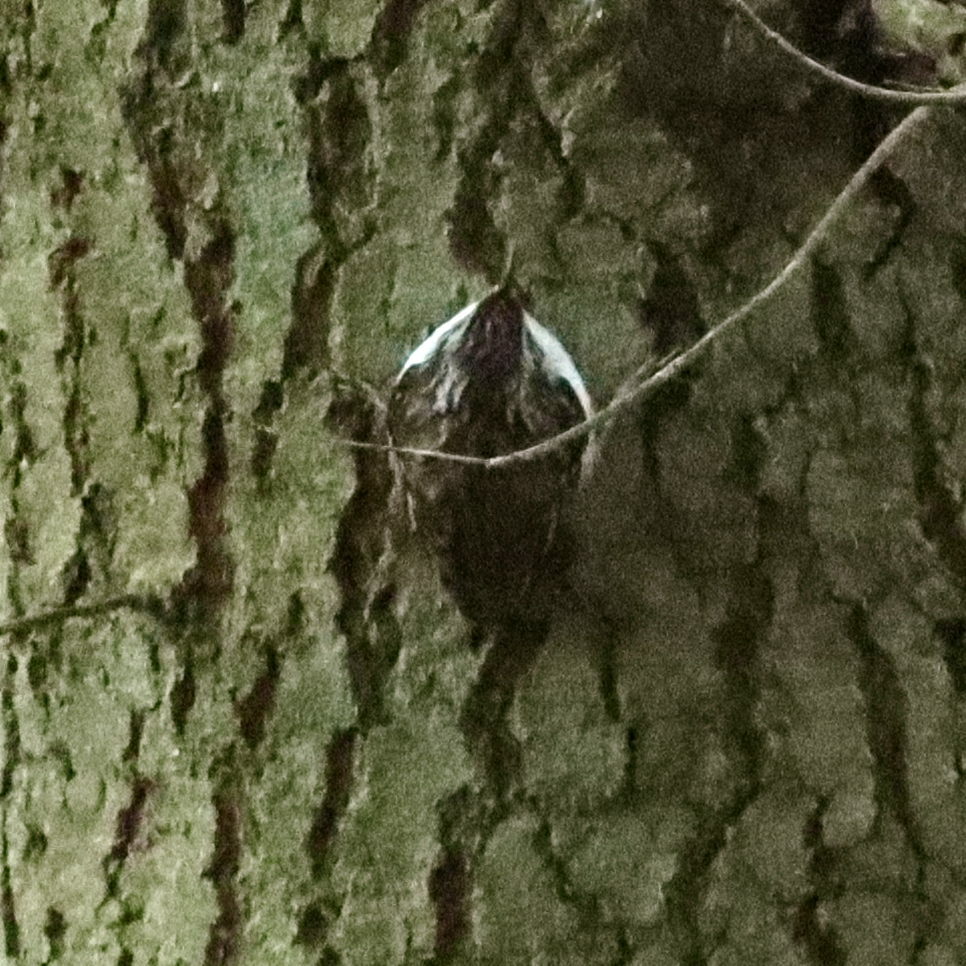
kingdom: Animalia
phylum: Chordata
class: Aves
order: Passeriformes
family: Certhiidae
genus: Certhia
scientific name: Certhia familiaris
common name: Eurasian treecreeper
